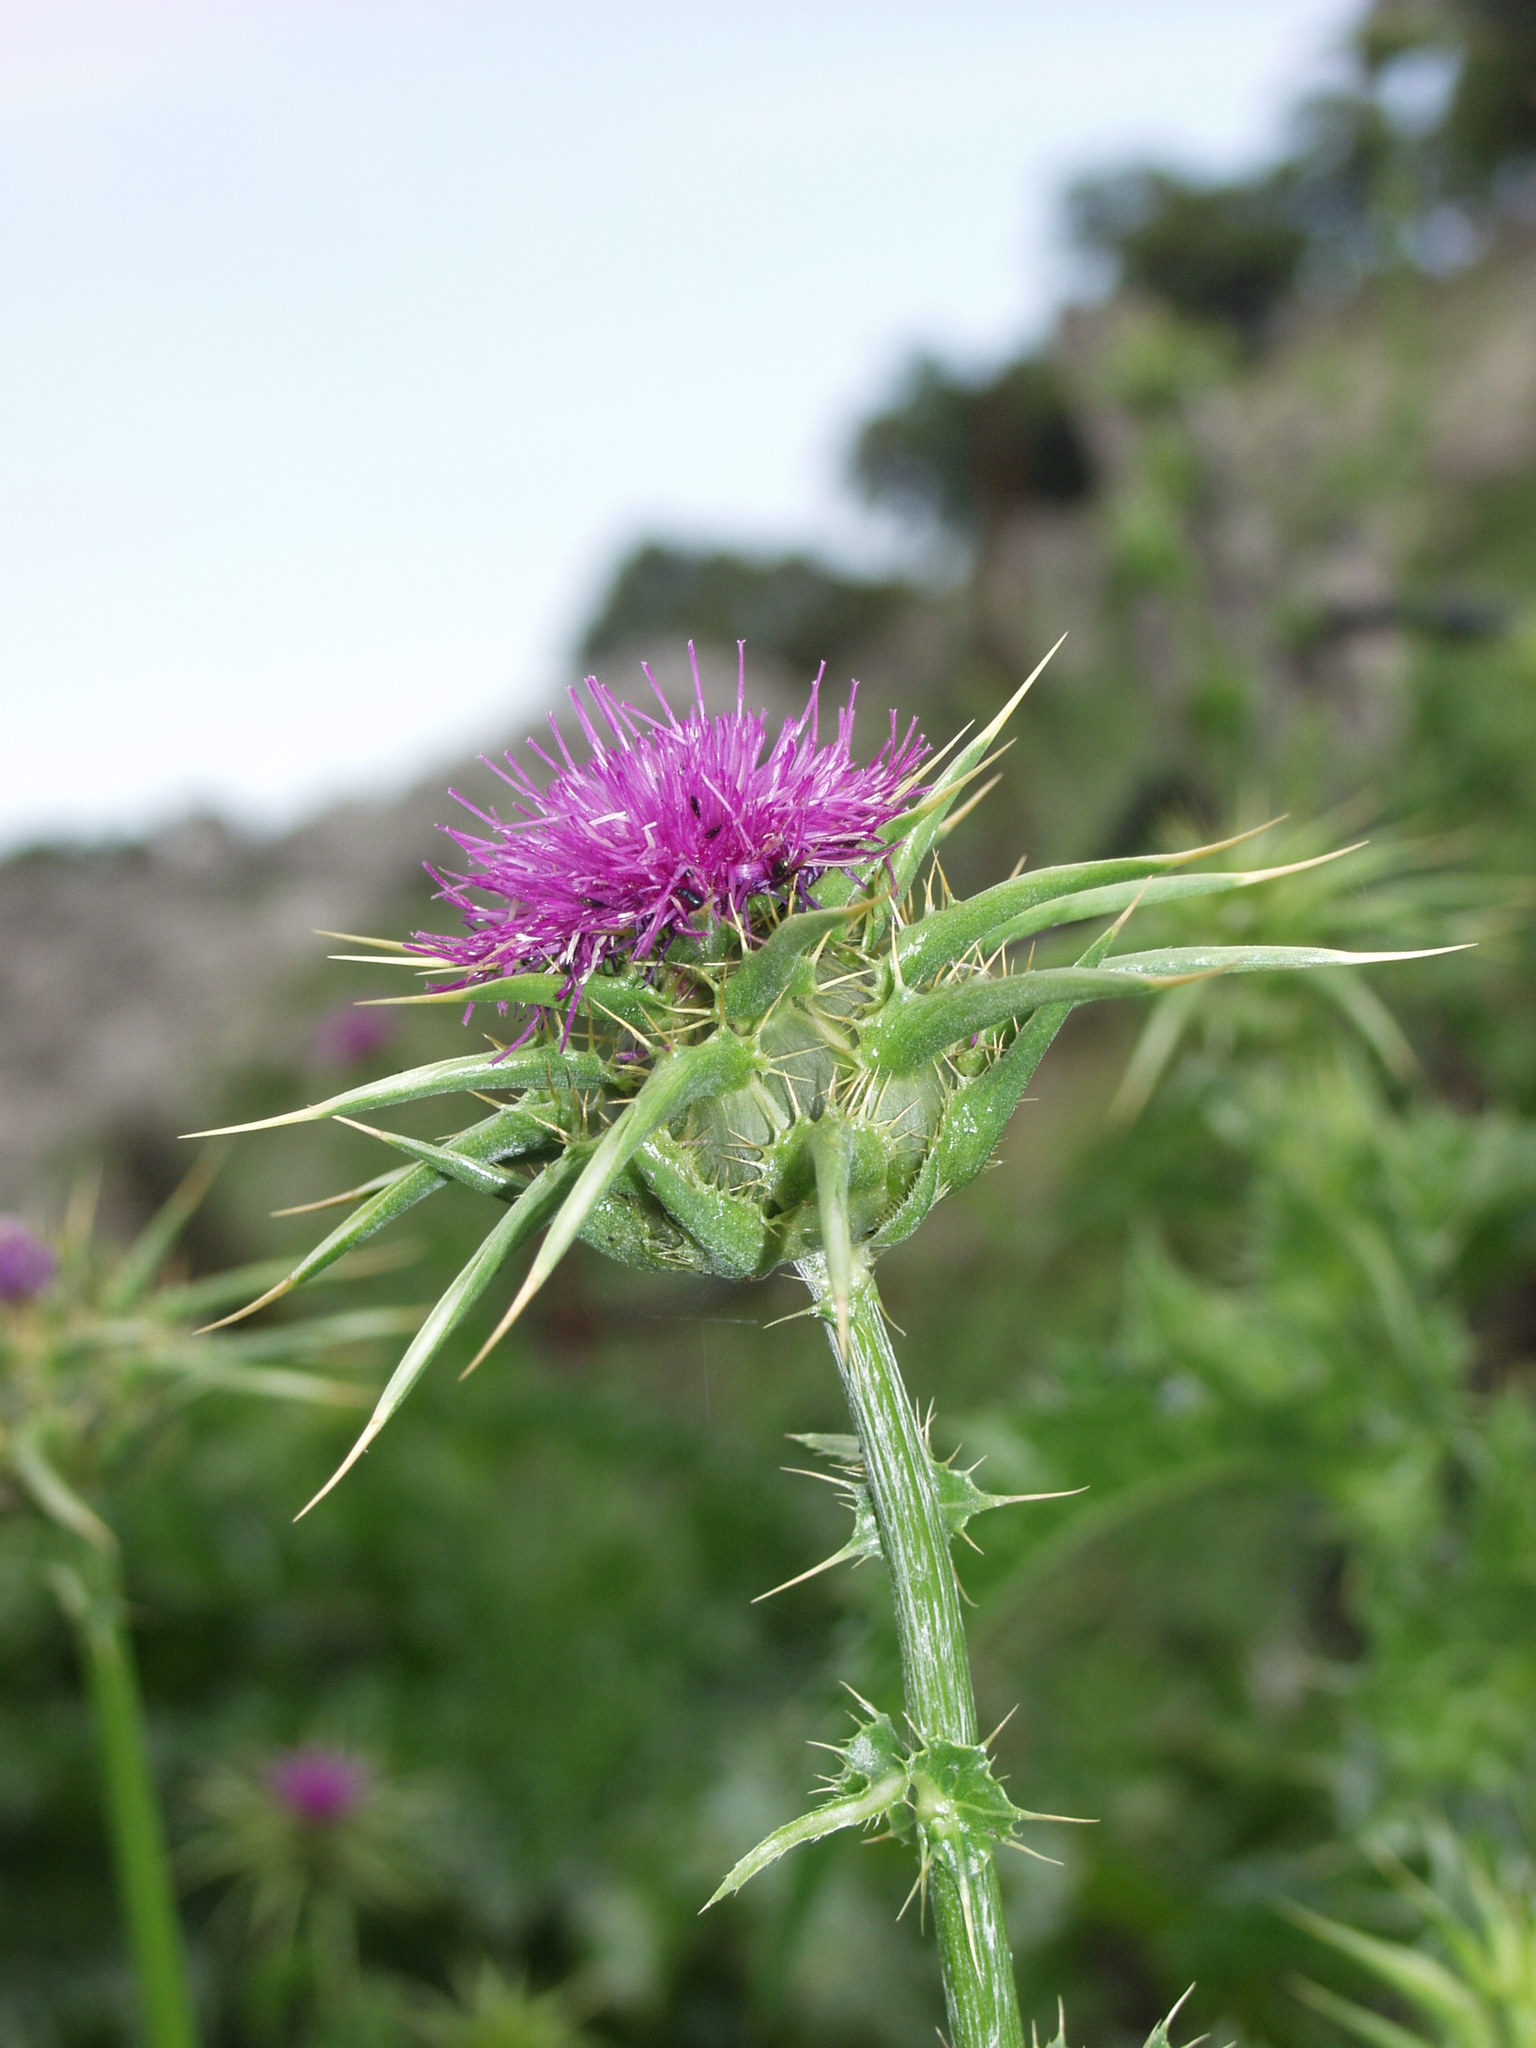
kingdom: Plantae
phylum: Tracheophyta
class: Magnoliopsida
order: Asterales
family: Asteraceae
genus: Silybum
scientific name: Silybum marianum
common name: Milk thistle
